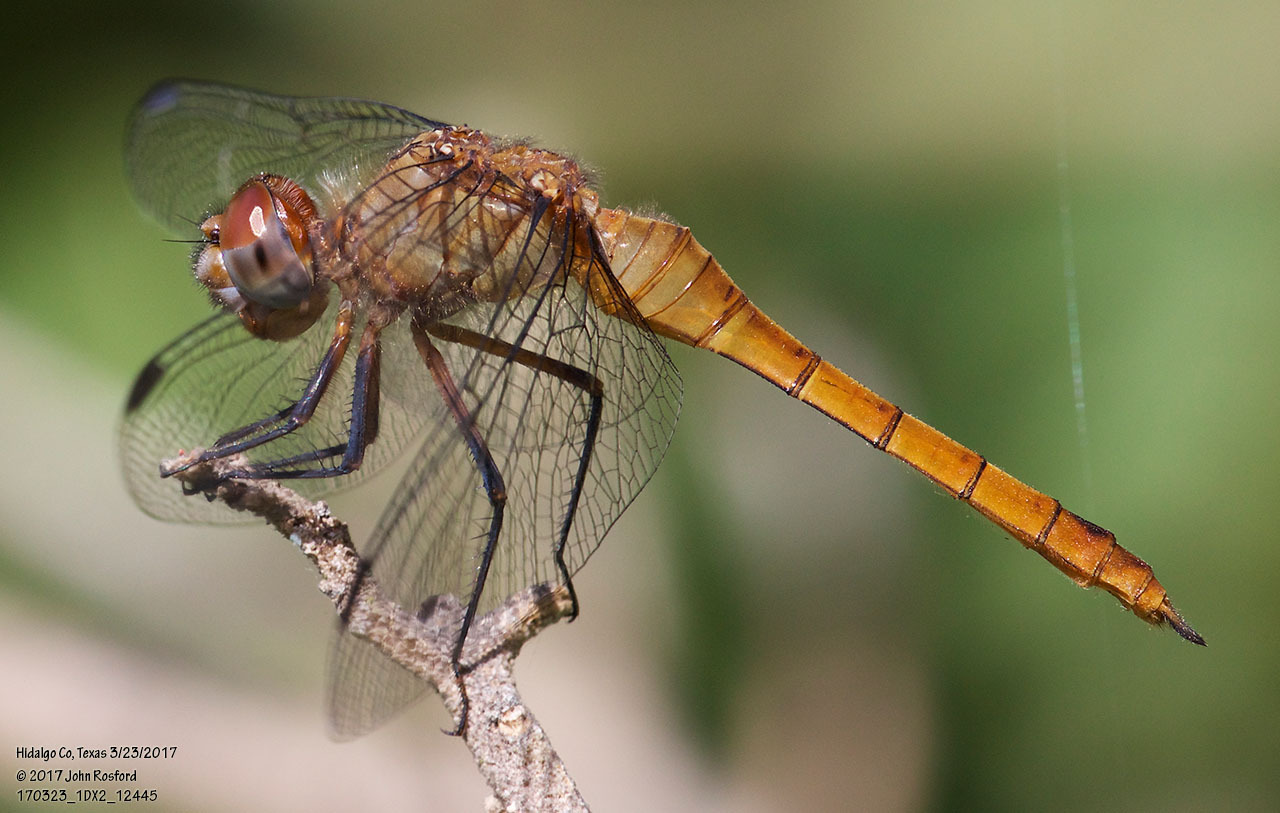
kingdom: Animalia
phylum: Arthropoda
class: Insecta
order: Odonata
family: Libellulidae
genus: Brachymesia
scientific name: Brachymesia furcata
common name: Red-taled pennant
